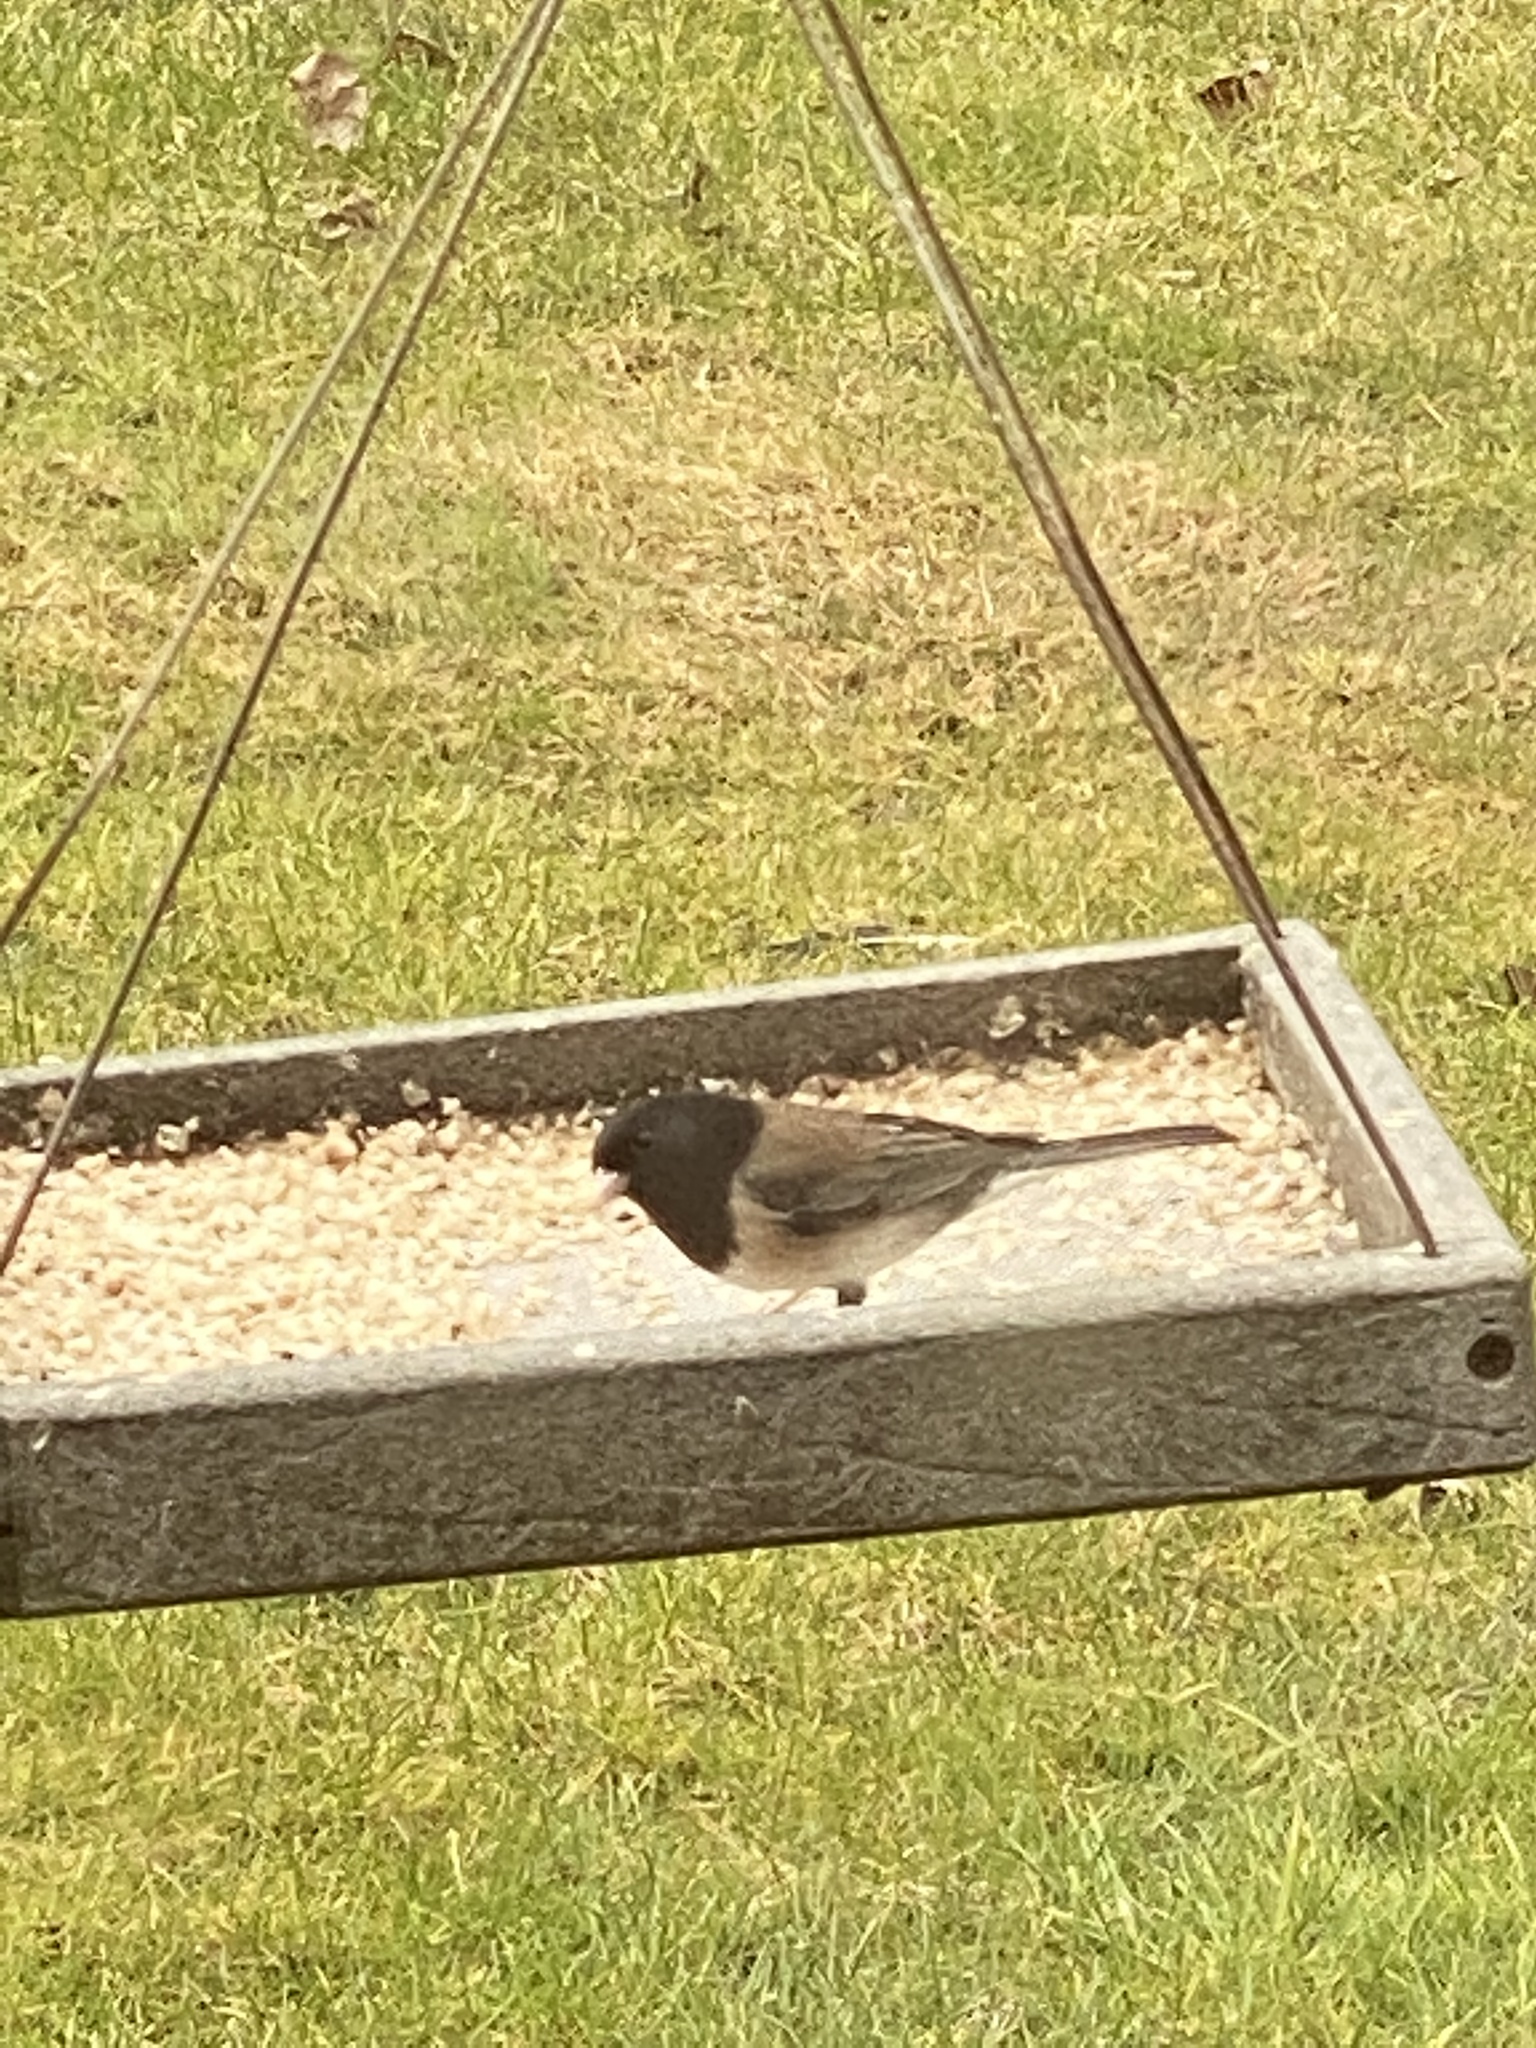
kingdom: Animalia
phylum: Chordata
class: Aves
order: Passeriformes
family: Passerellidae
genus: Junco
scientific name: Junco hyemalis
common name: Dark-eyed junco
